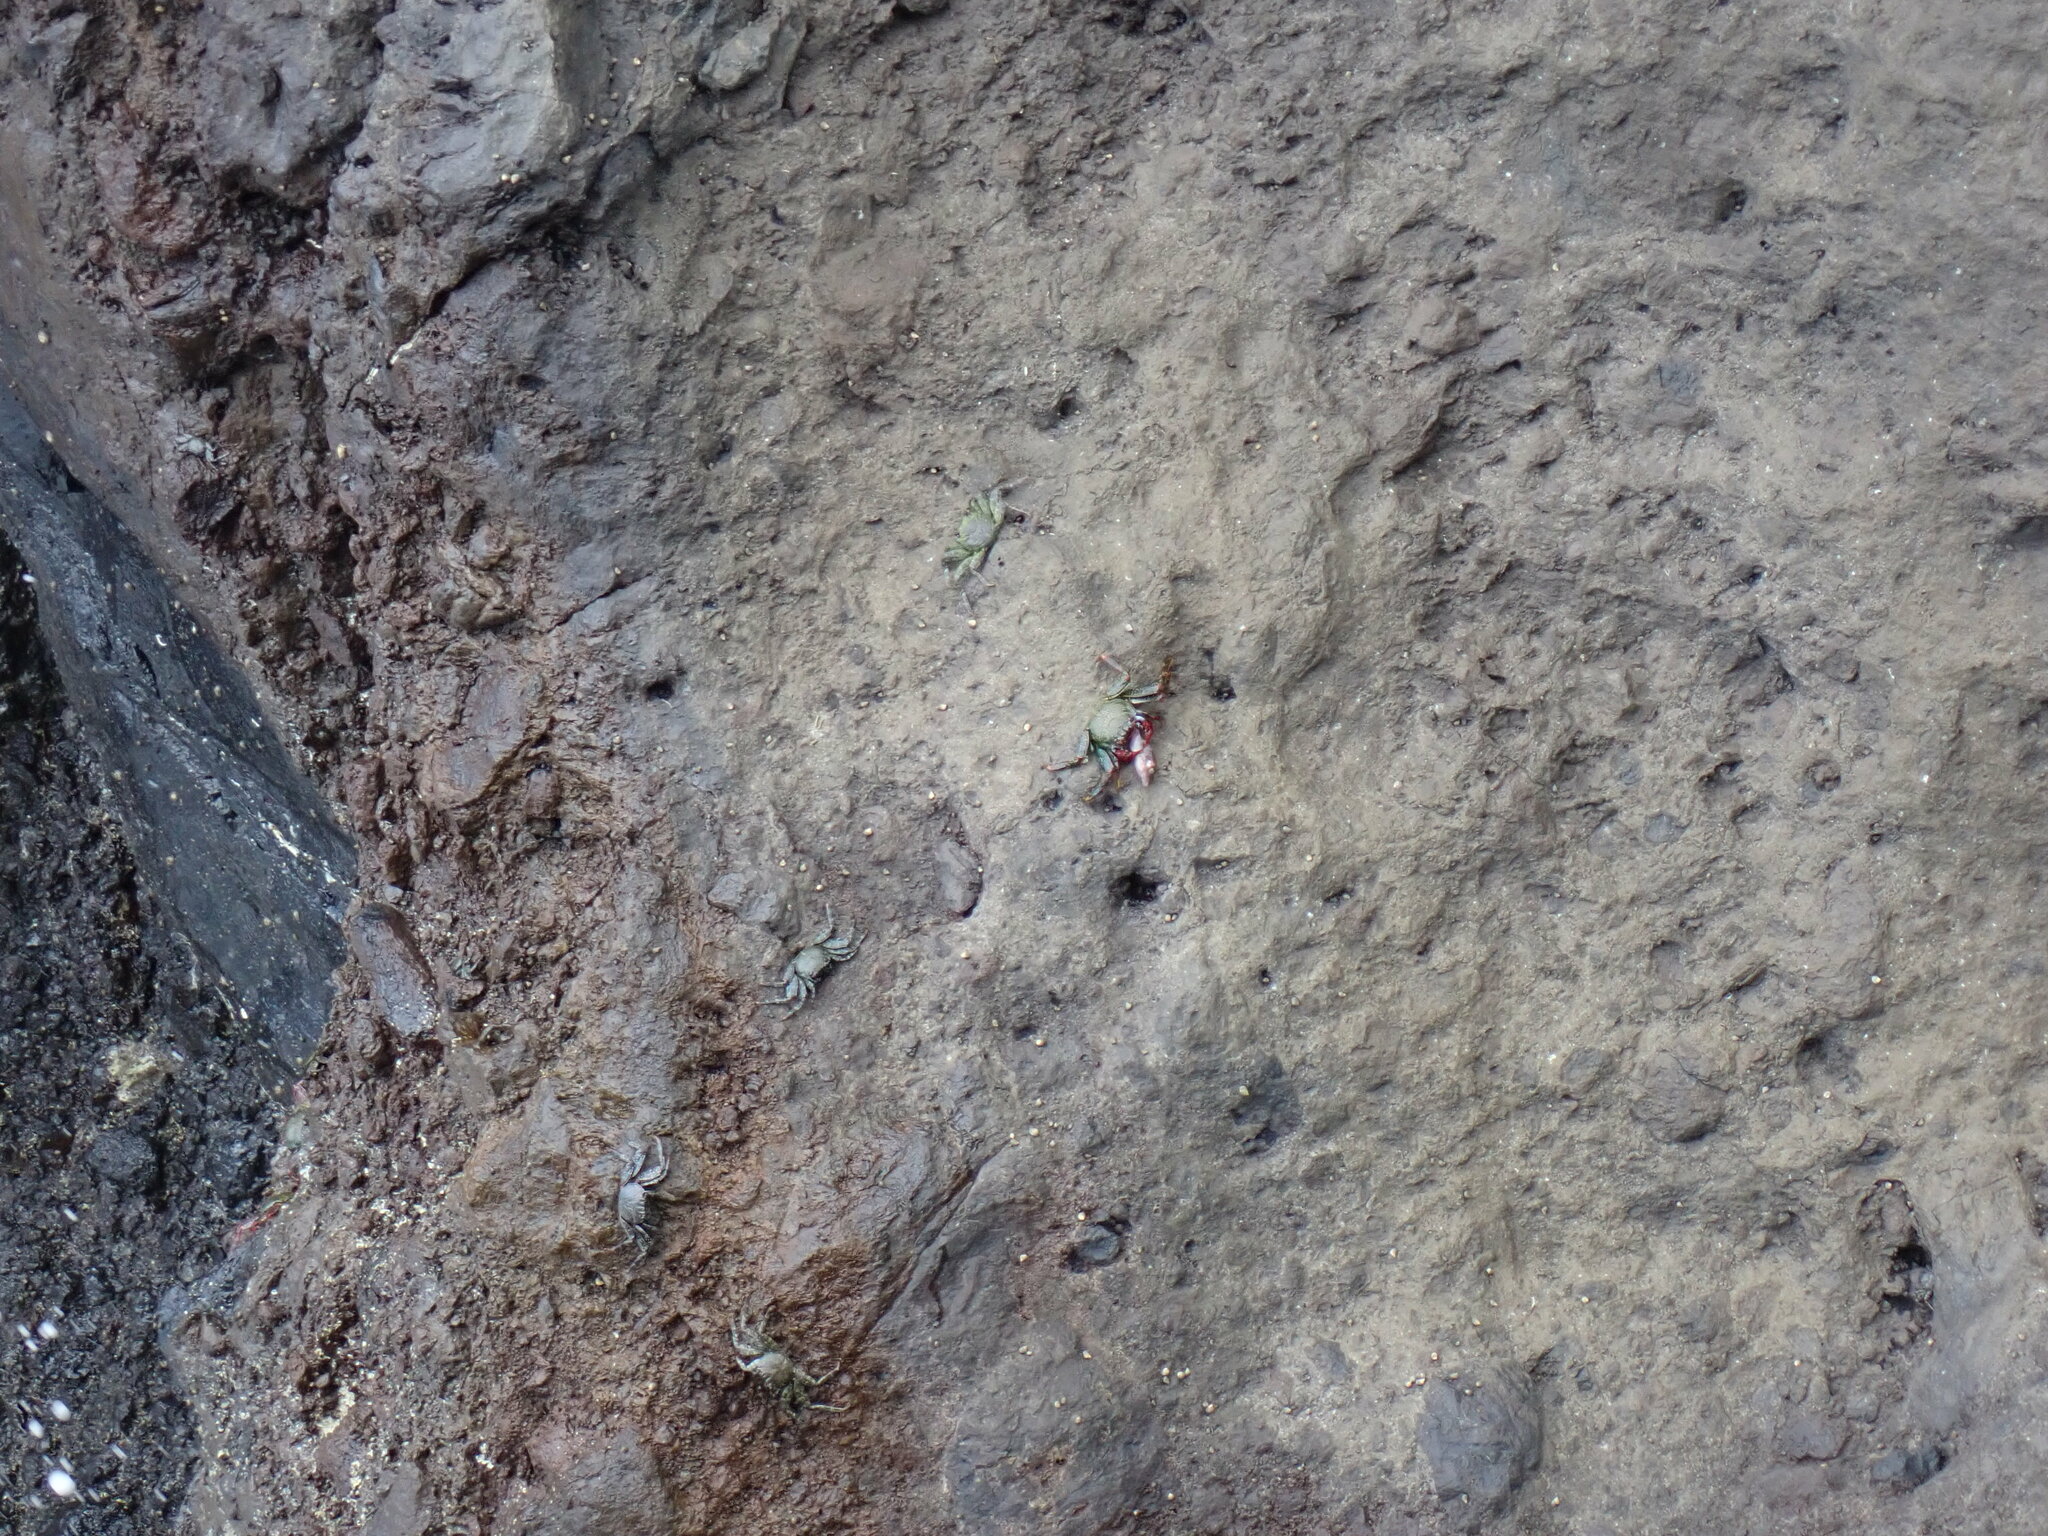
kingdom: Animalia
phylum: Chordata
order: Tetraodontiformes
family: Tetraodontidae
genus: Canthigaster
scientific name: Canthigaster capistrata
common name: Macaronesian sharpnose-puffer
